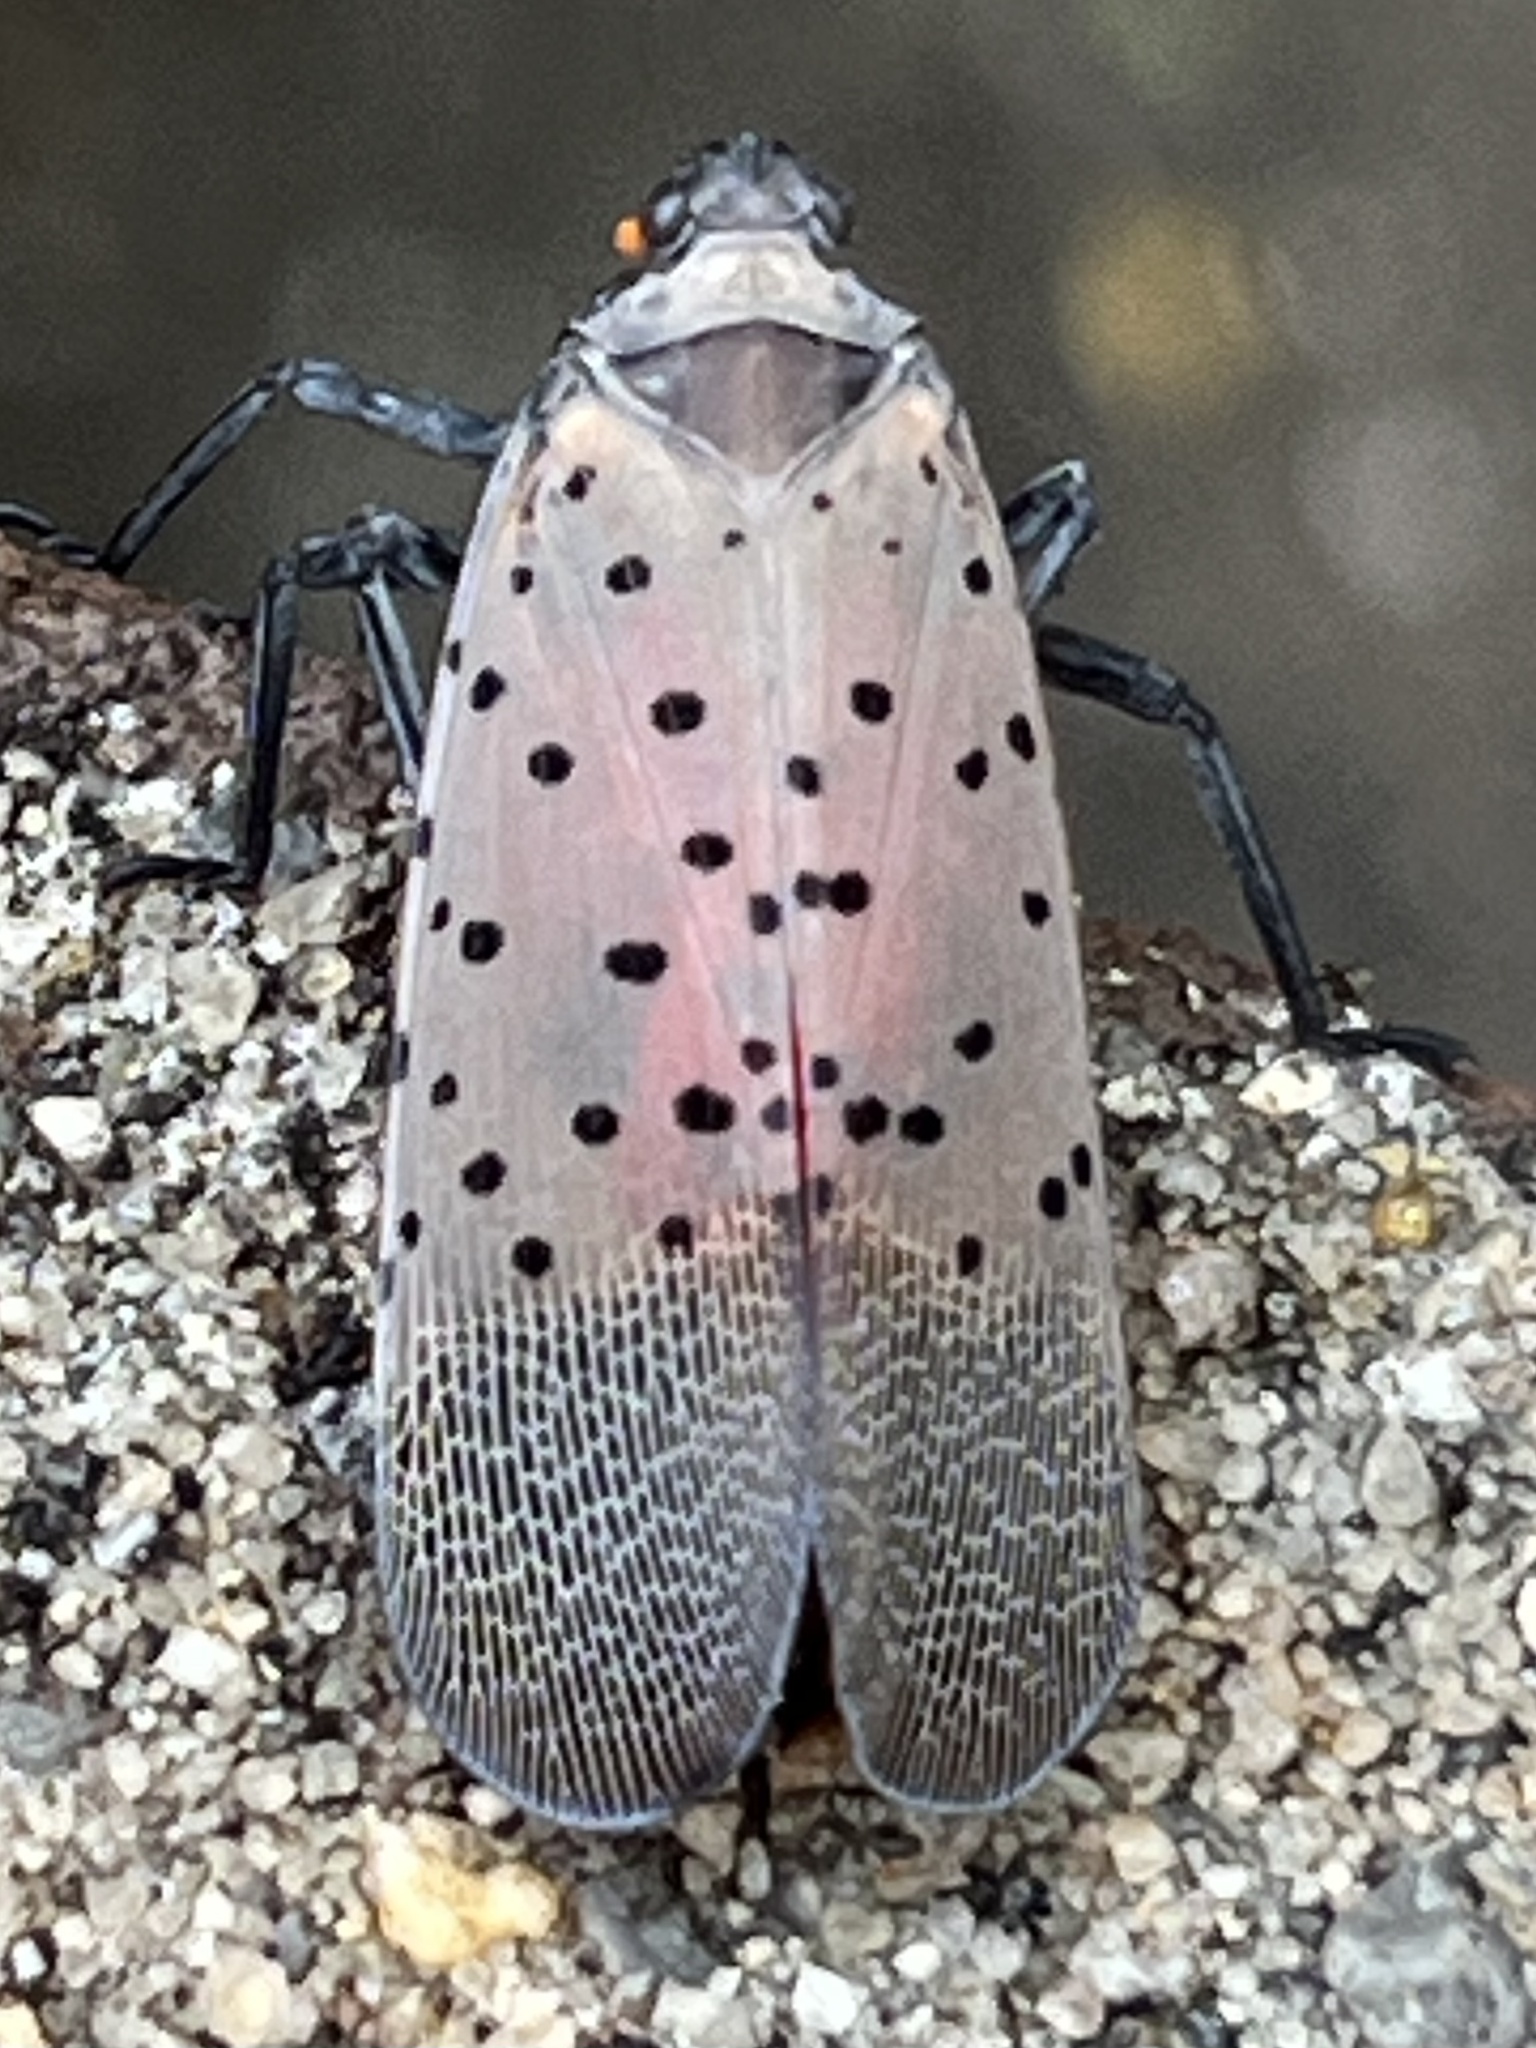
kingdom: Animalia
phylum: Arthropoda
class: Insecta
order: Hemiptera
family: Fulgoridae
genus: Lycorma
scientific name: Lycorma delicatula
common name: Spotted lanternfly
